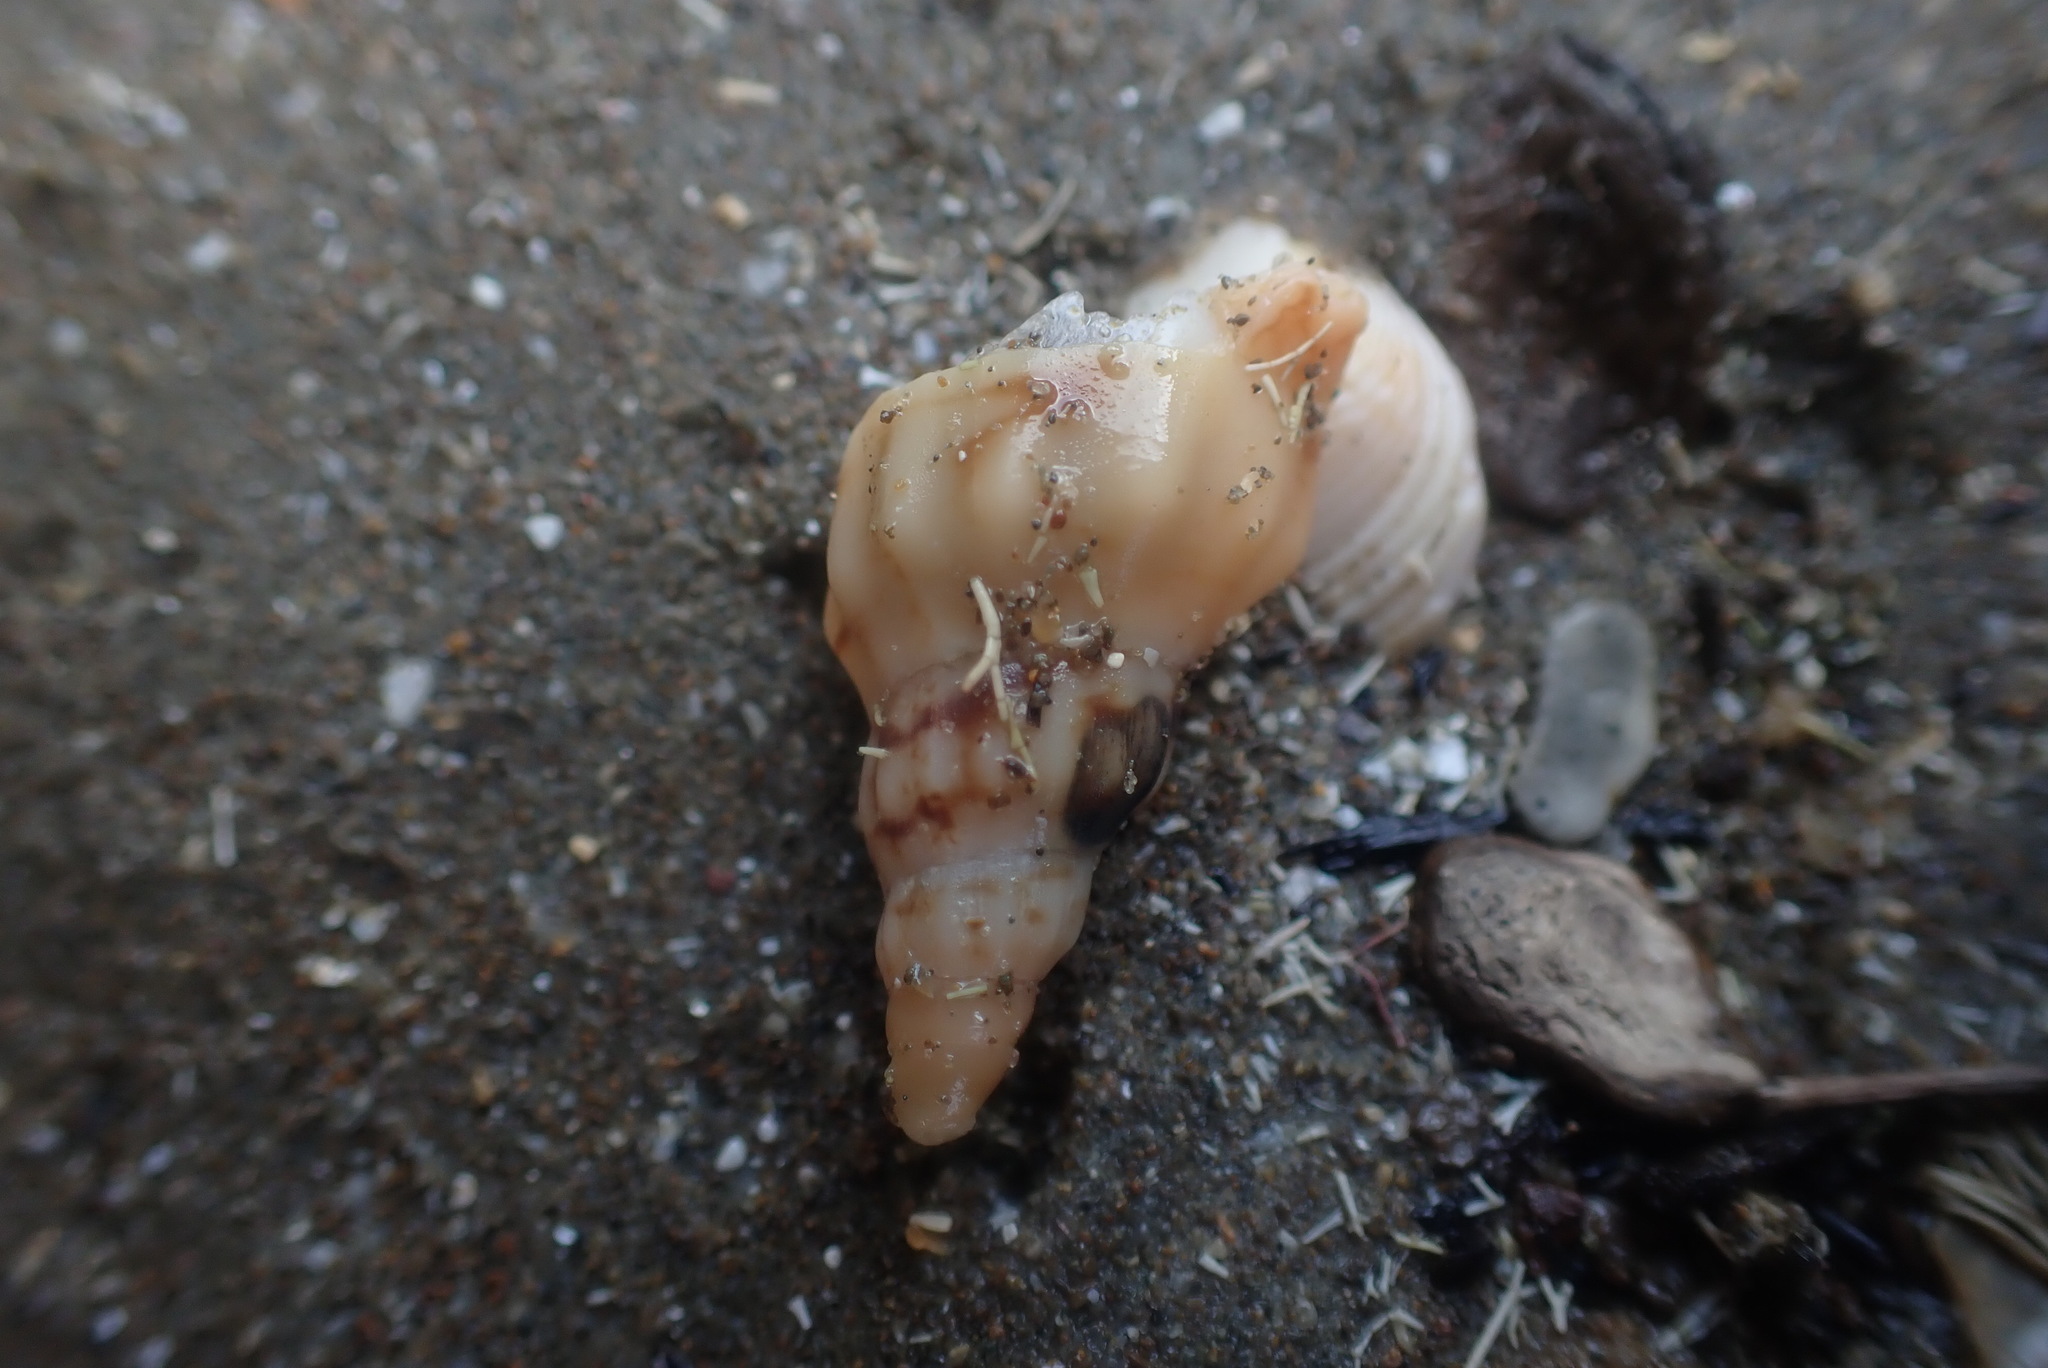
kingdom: Animalia
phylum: Mollusca
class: Gastropoda
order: Neogastropoda
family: Volutidae
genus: Alcithoe
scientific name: Alcithoe arabica
